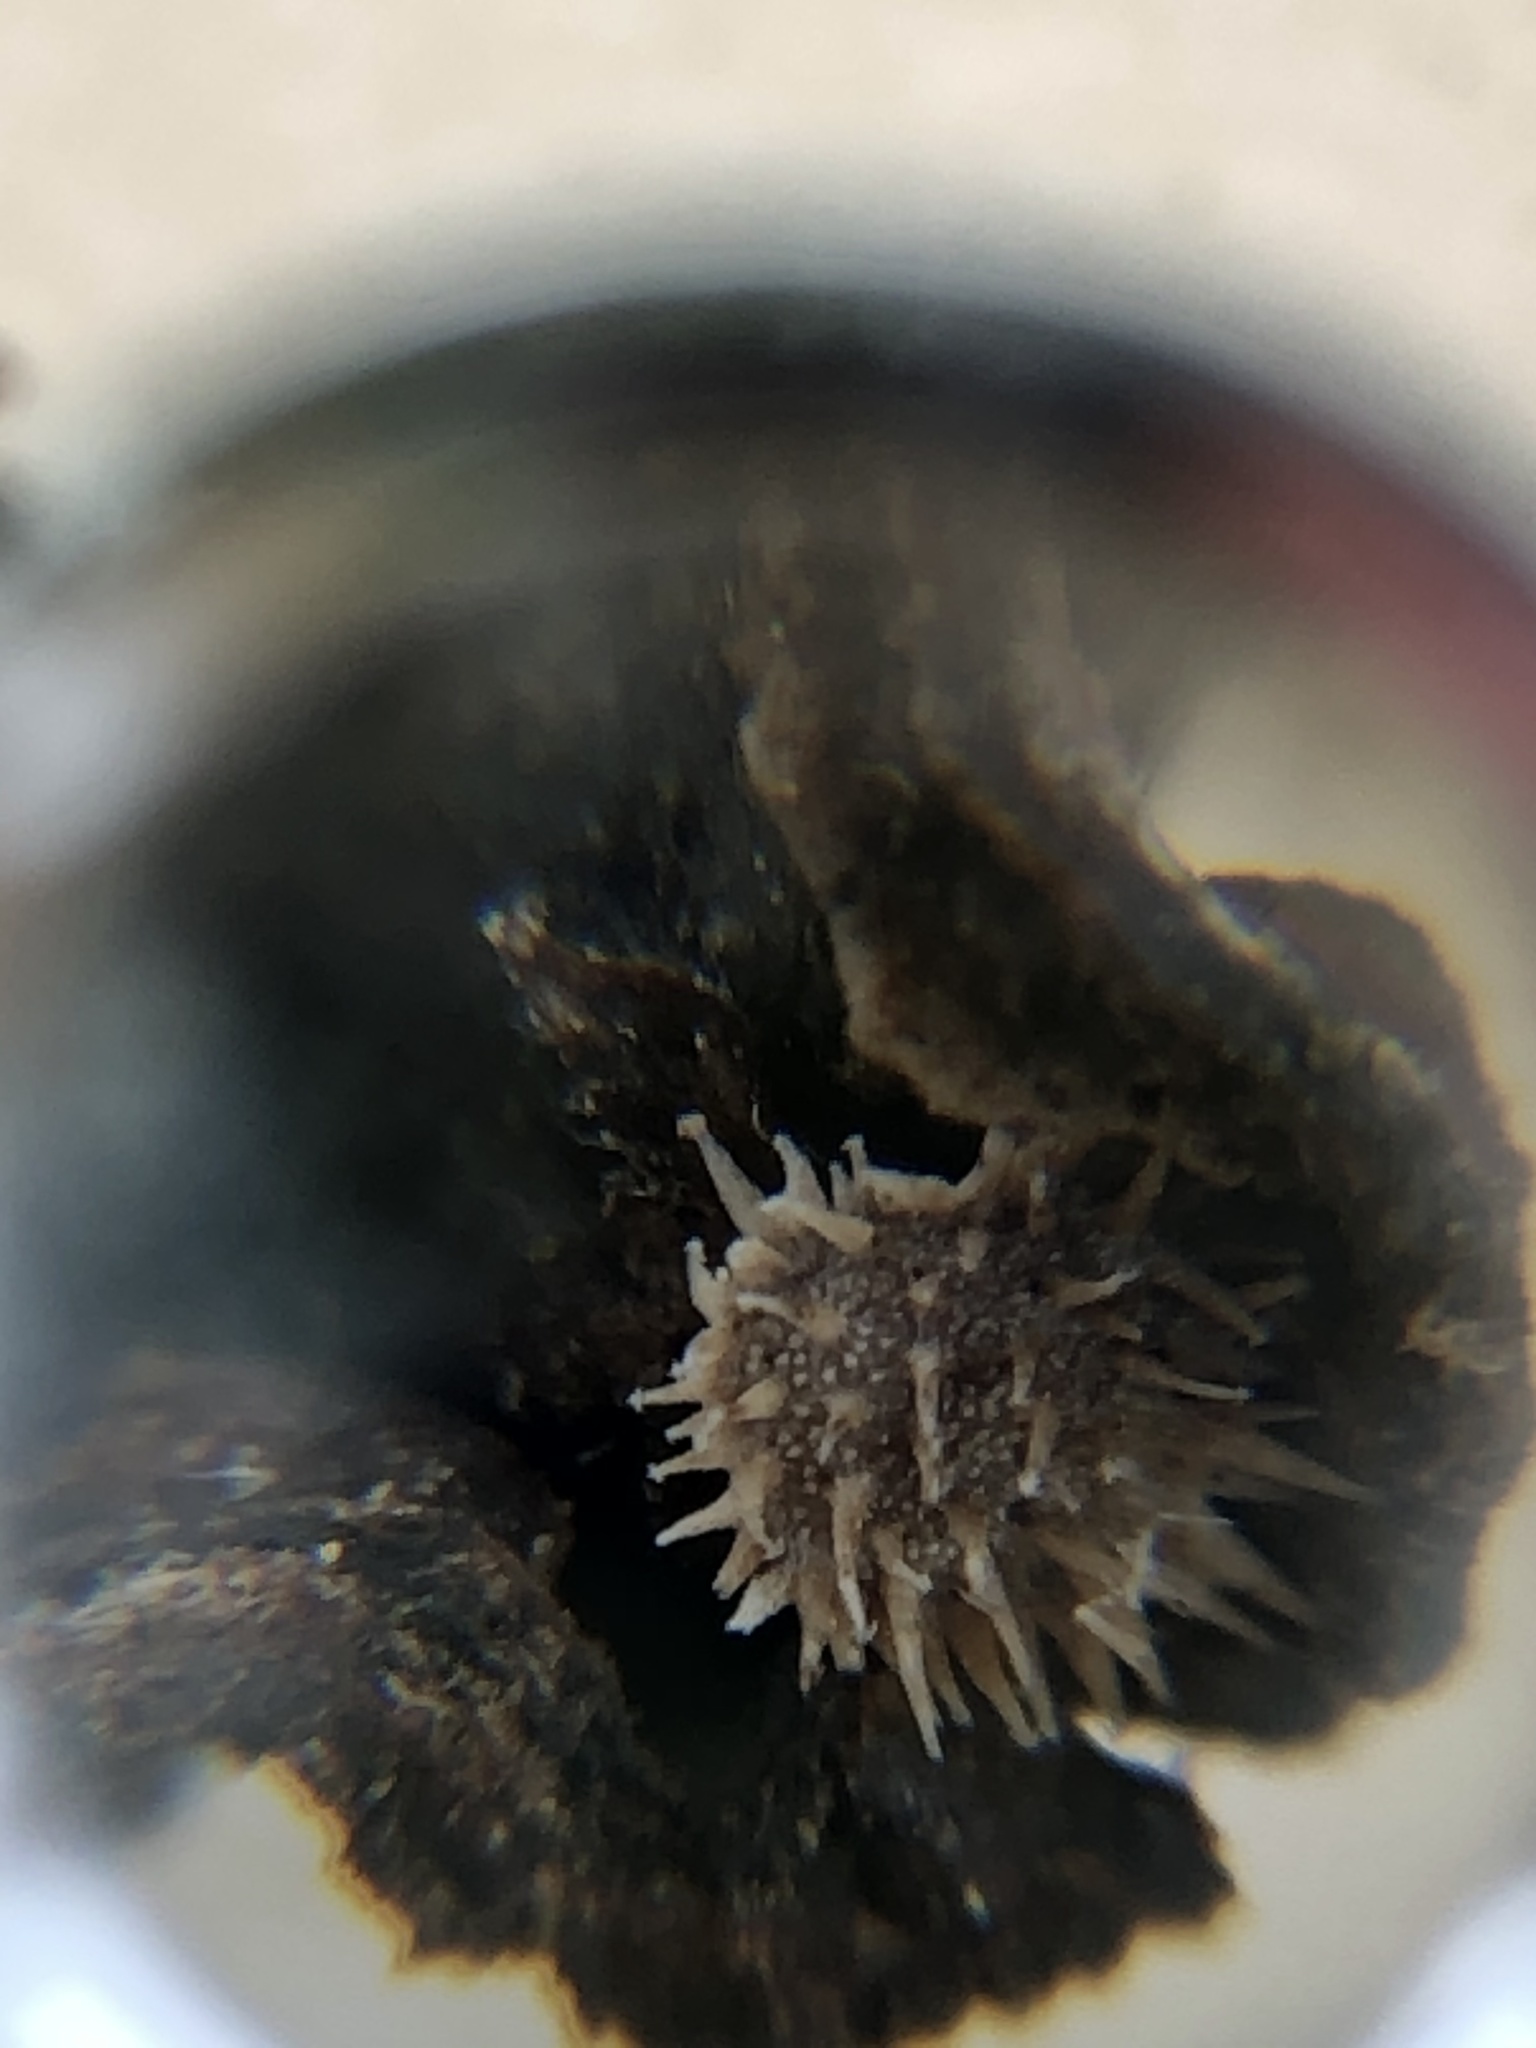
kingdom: Plantae
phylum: Tracheophyta
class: Magnoliopsida
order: Boraginales
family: Boraginaceae
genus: Hackelia
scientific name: Hackelia virginiana
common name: Beggar's-lice
